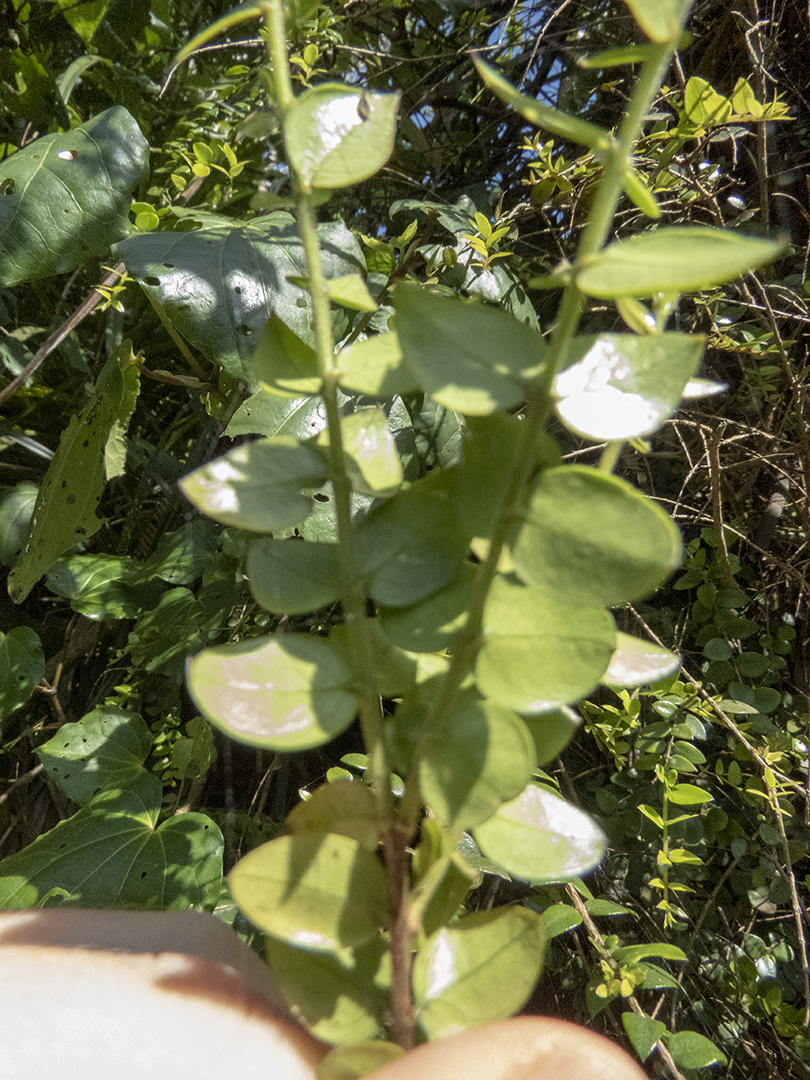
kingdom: Plantae
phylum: Tracheophyta
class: Magnoliopsida
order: Myrtales
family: Myrtaceae
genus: Metrosideros
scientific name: Metrosideros diffusa
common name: Small ratavine
